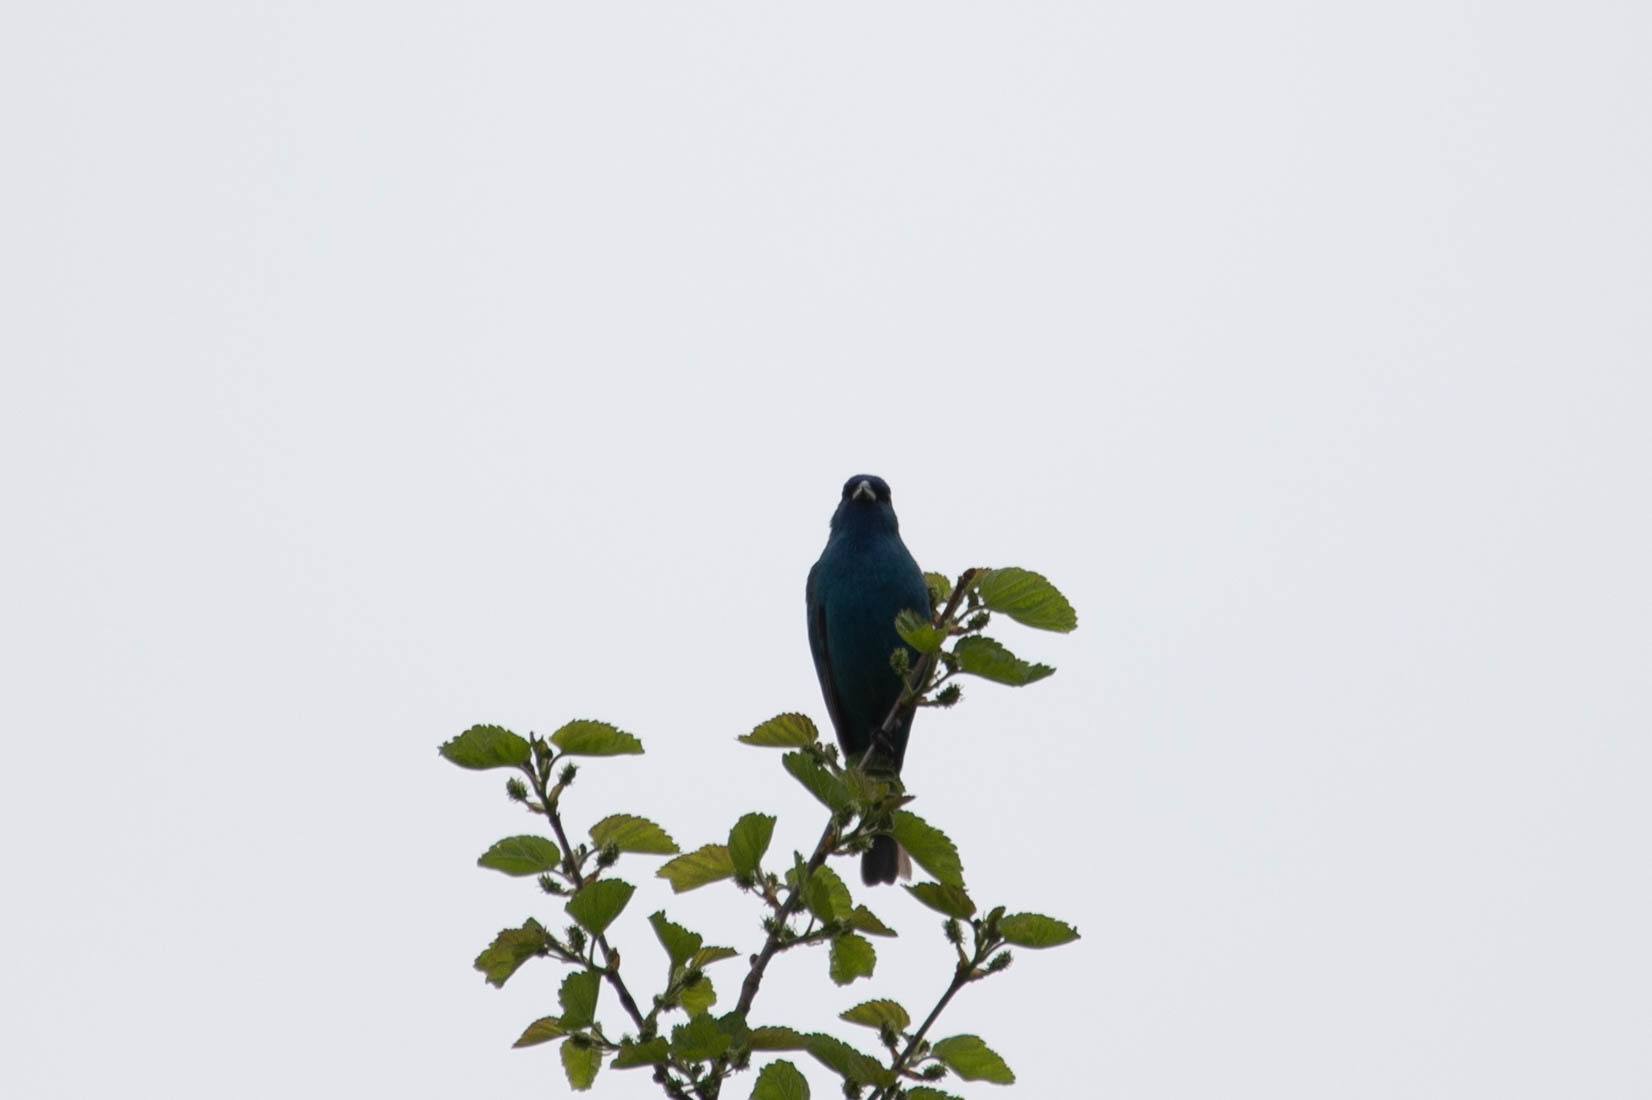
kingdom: Animalia
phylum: Chordata
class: Aves
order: Passeriformes
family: Cardinalidae
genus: Passerina
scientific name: Passerina cyanea
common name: Indigo bunting
